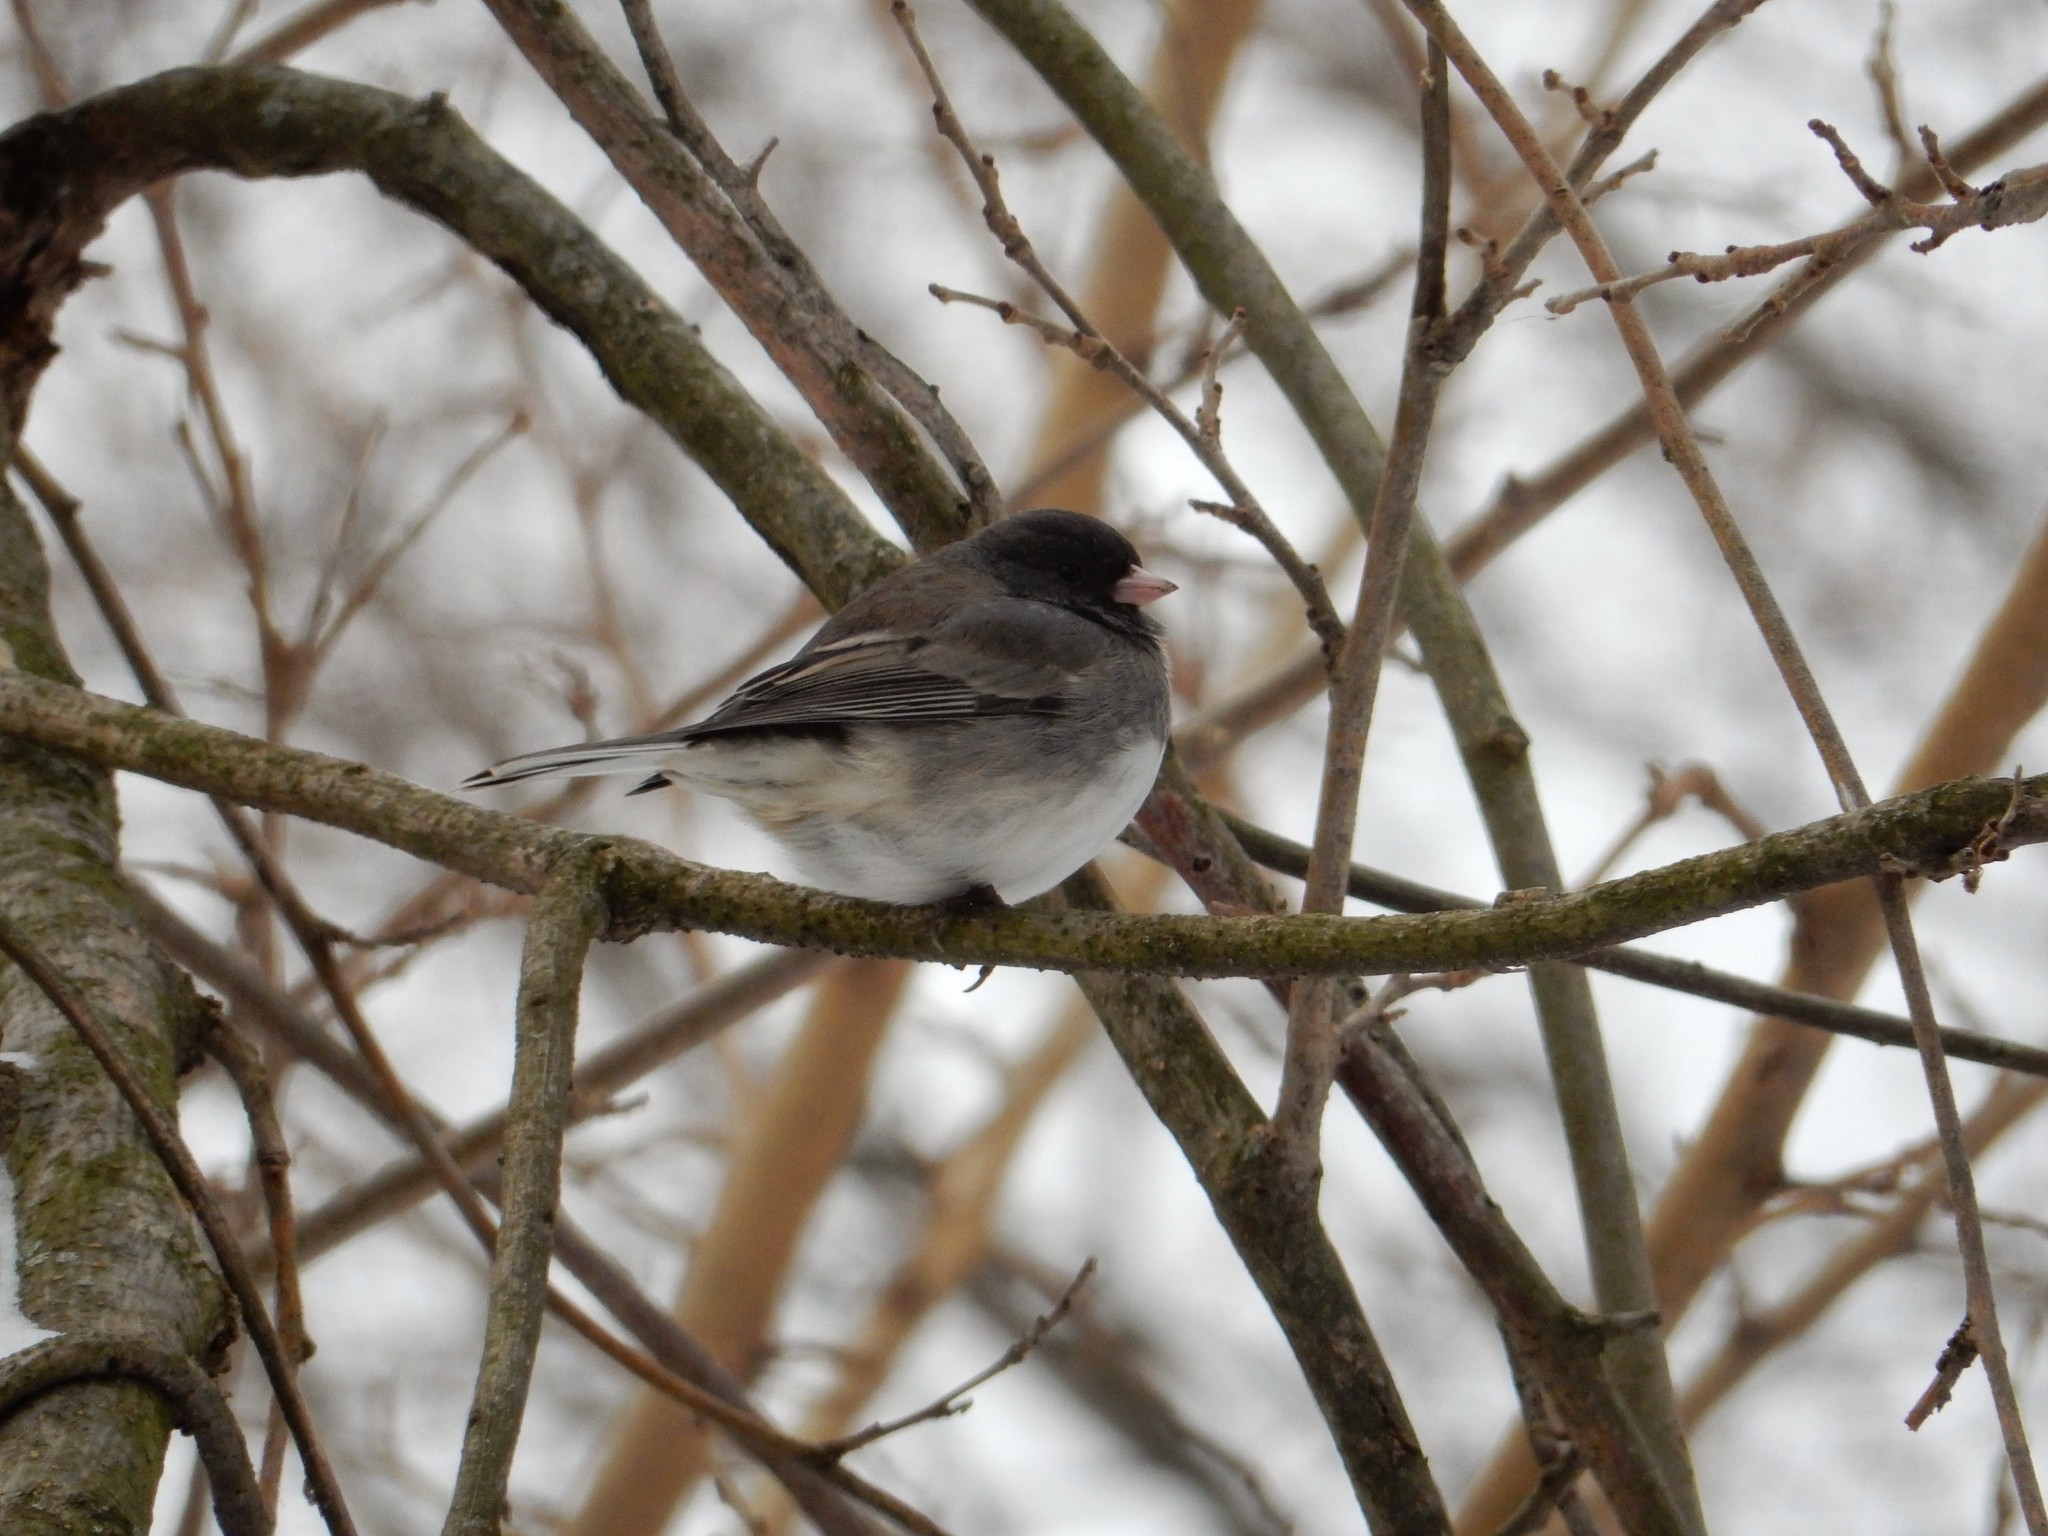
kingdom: Animalia
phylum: Chordata
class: Aves
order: Passeriformes
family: Passerellidae
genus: Junco
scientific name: Junco hyemalis
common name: Dark-eyed junco
